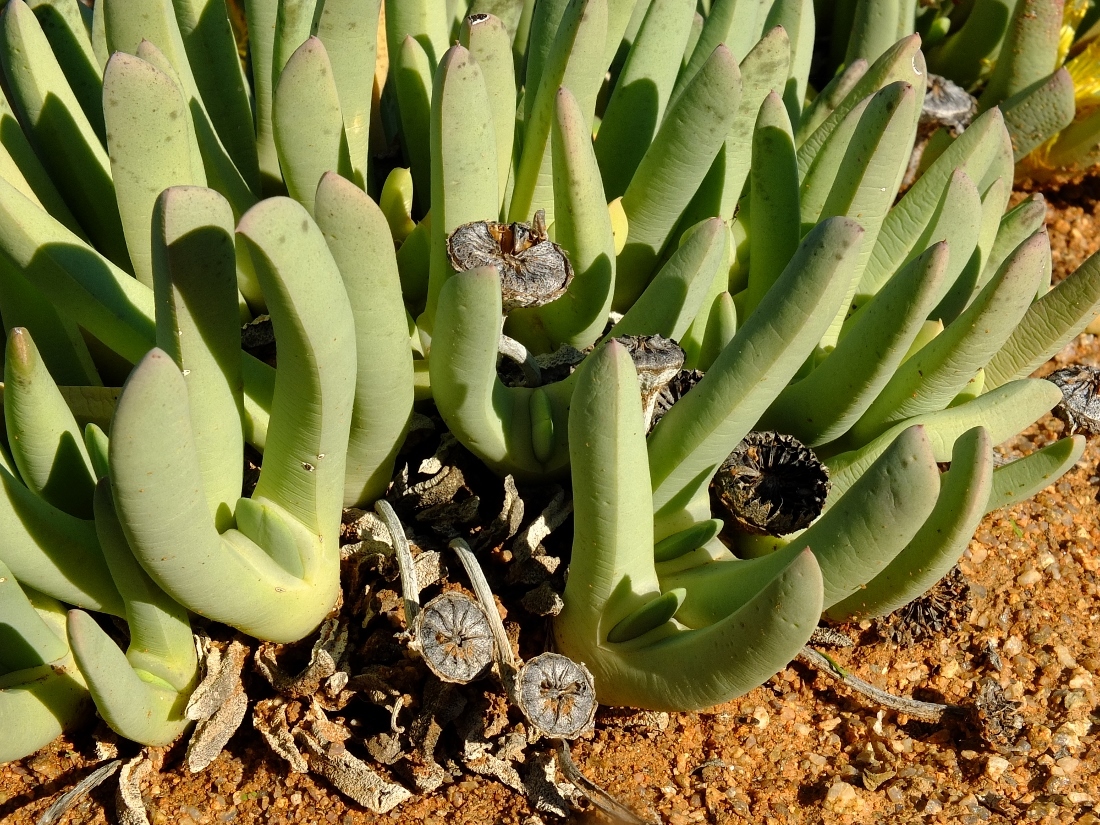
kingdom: Plantae
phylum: Tracheophyta
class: Magnoliopsida
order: Caryophyllales
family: Aizoaceae
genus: Cheiridopsis
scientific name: Cheiridopsis denticulata
